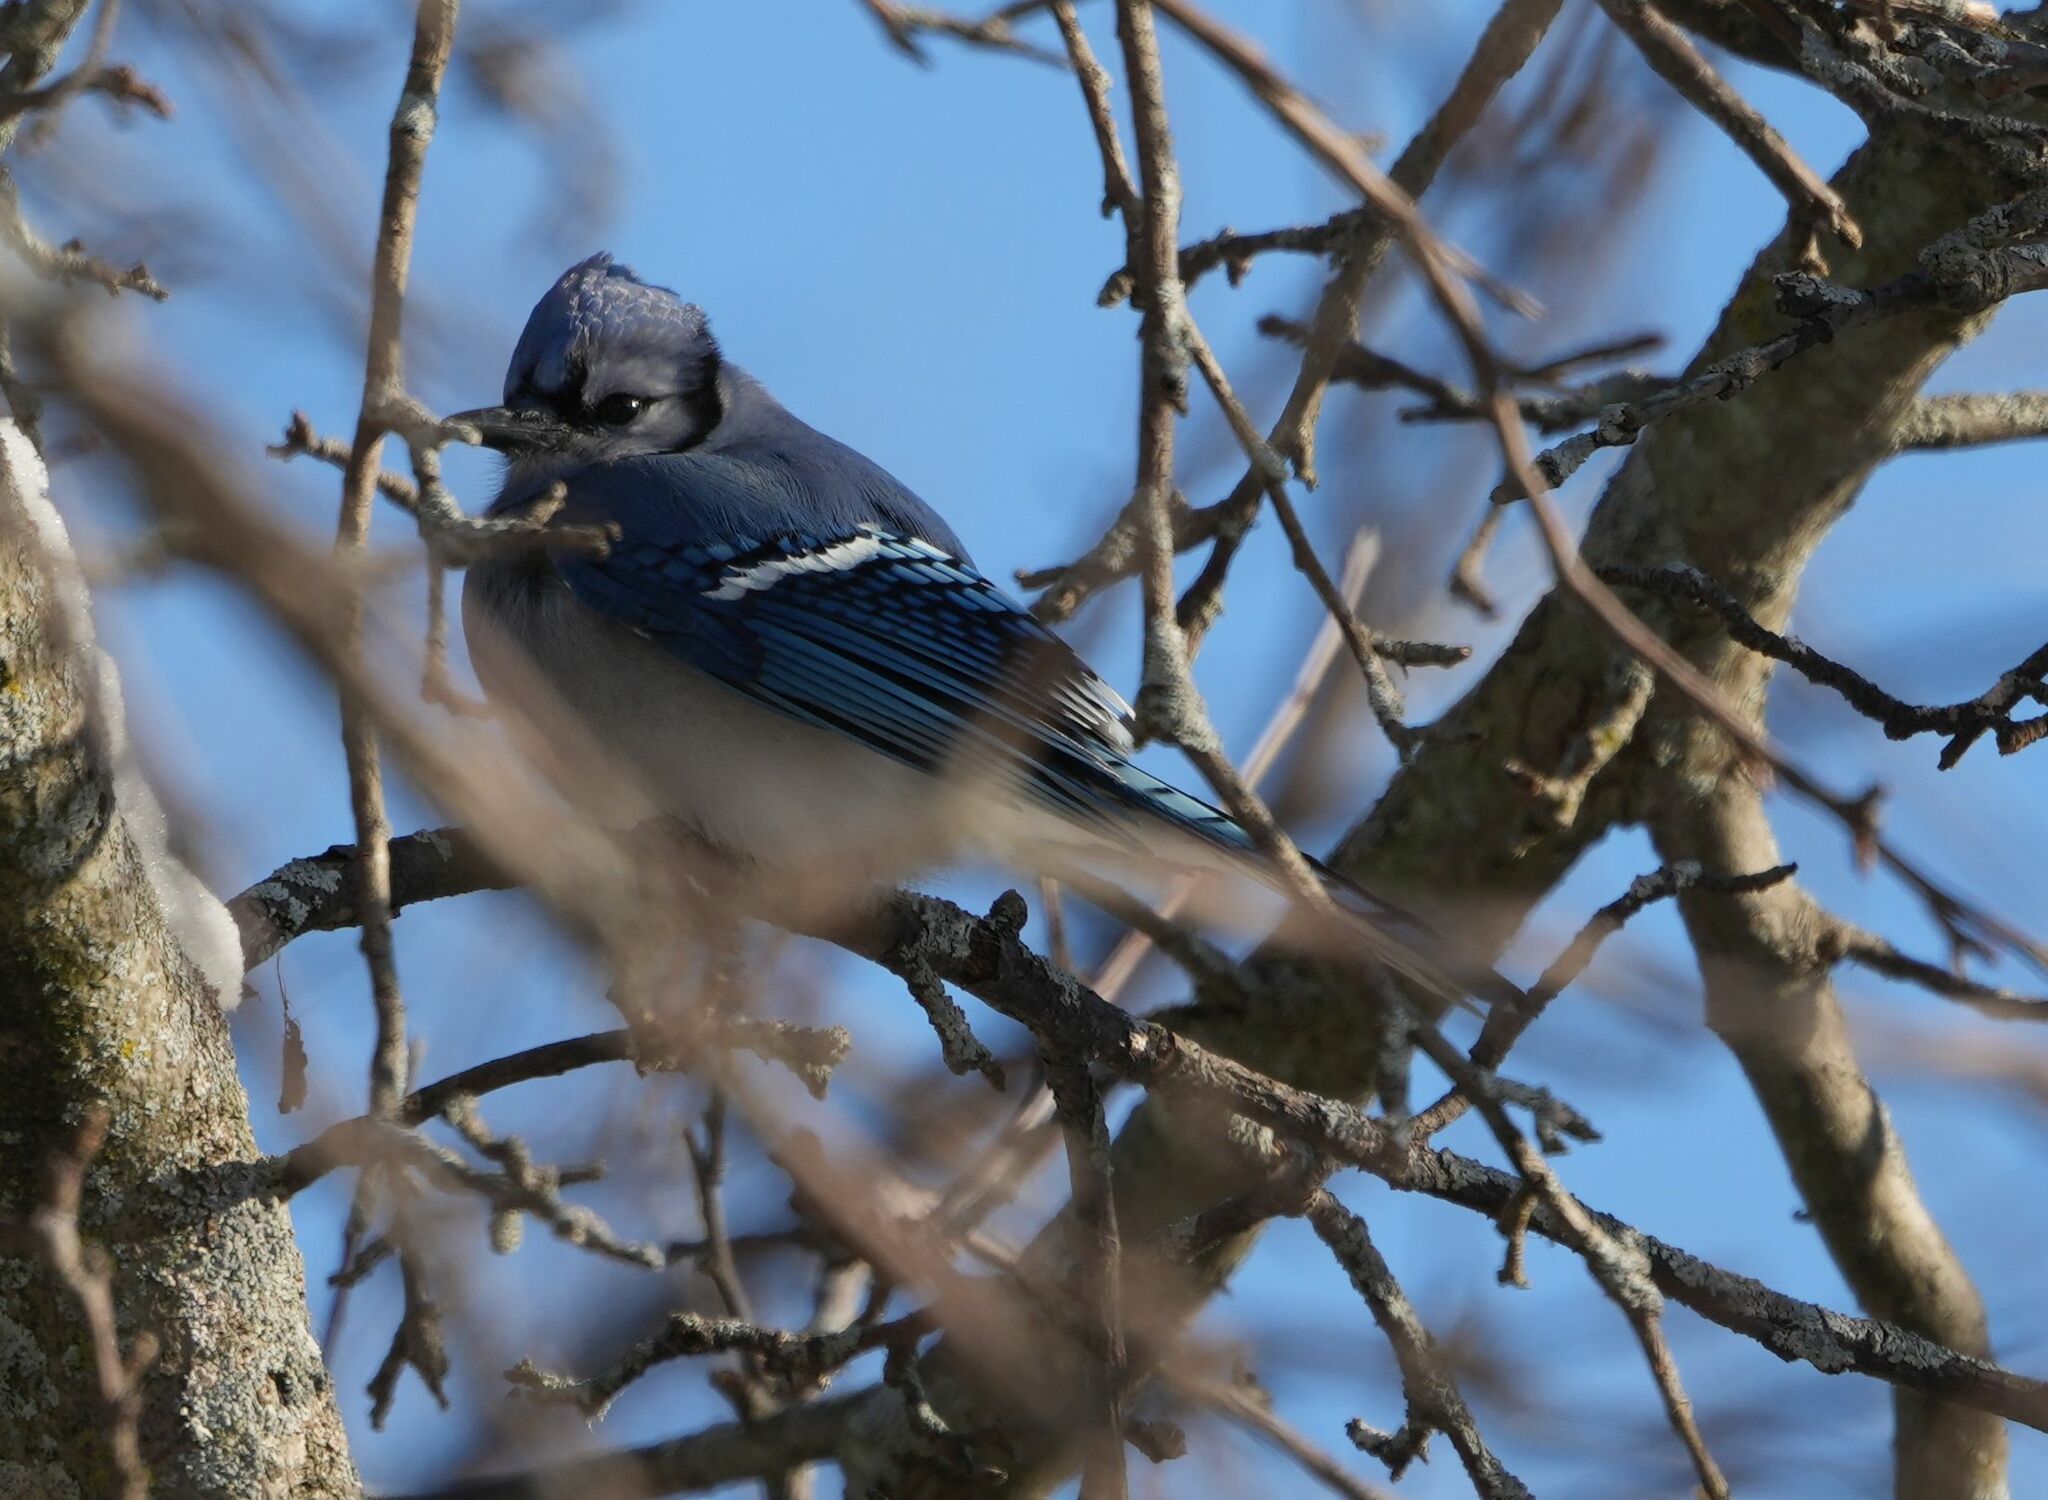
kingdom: Animalia
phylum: Chordata
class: Aves
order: Passeriformes
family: Corvidae
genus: Cyanocitta
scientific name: Cyanocitta cristata
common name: Blue jay
